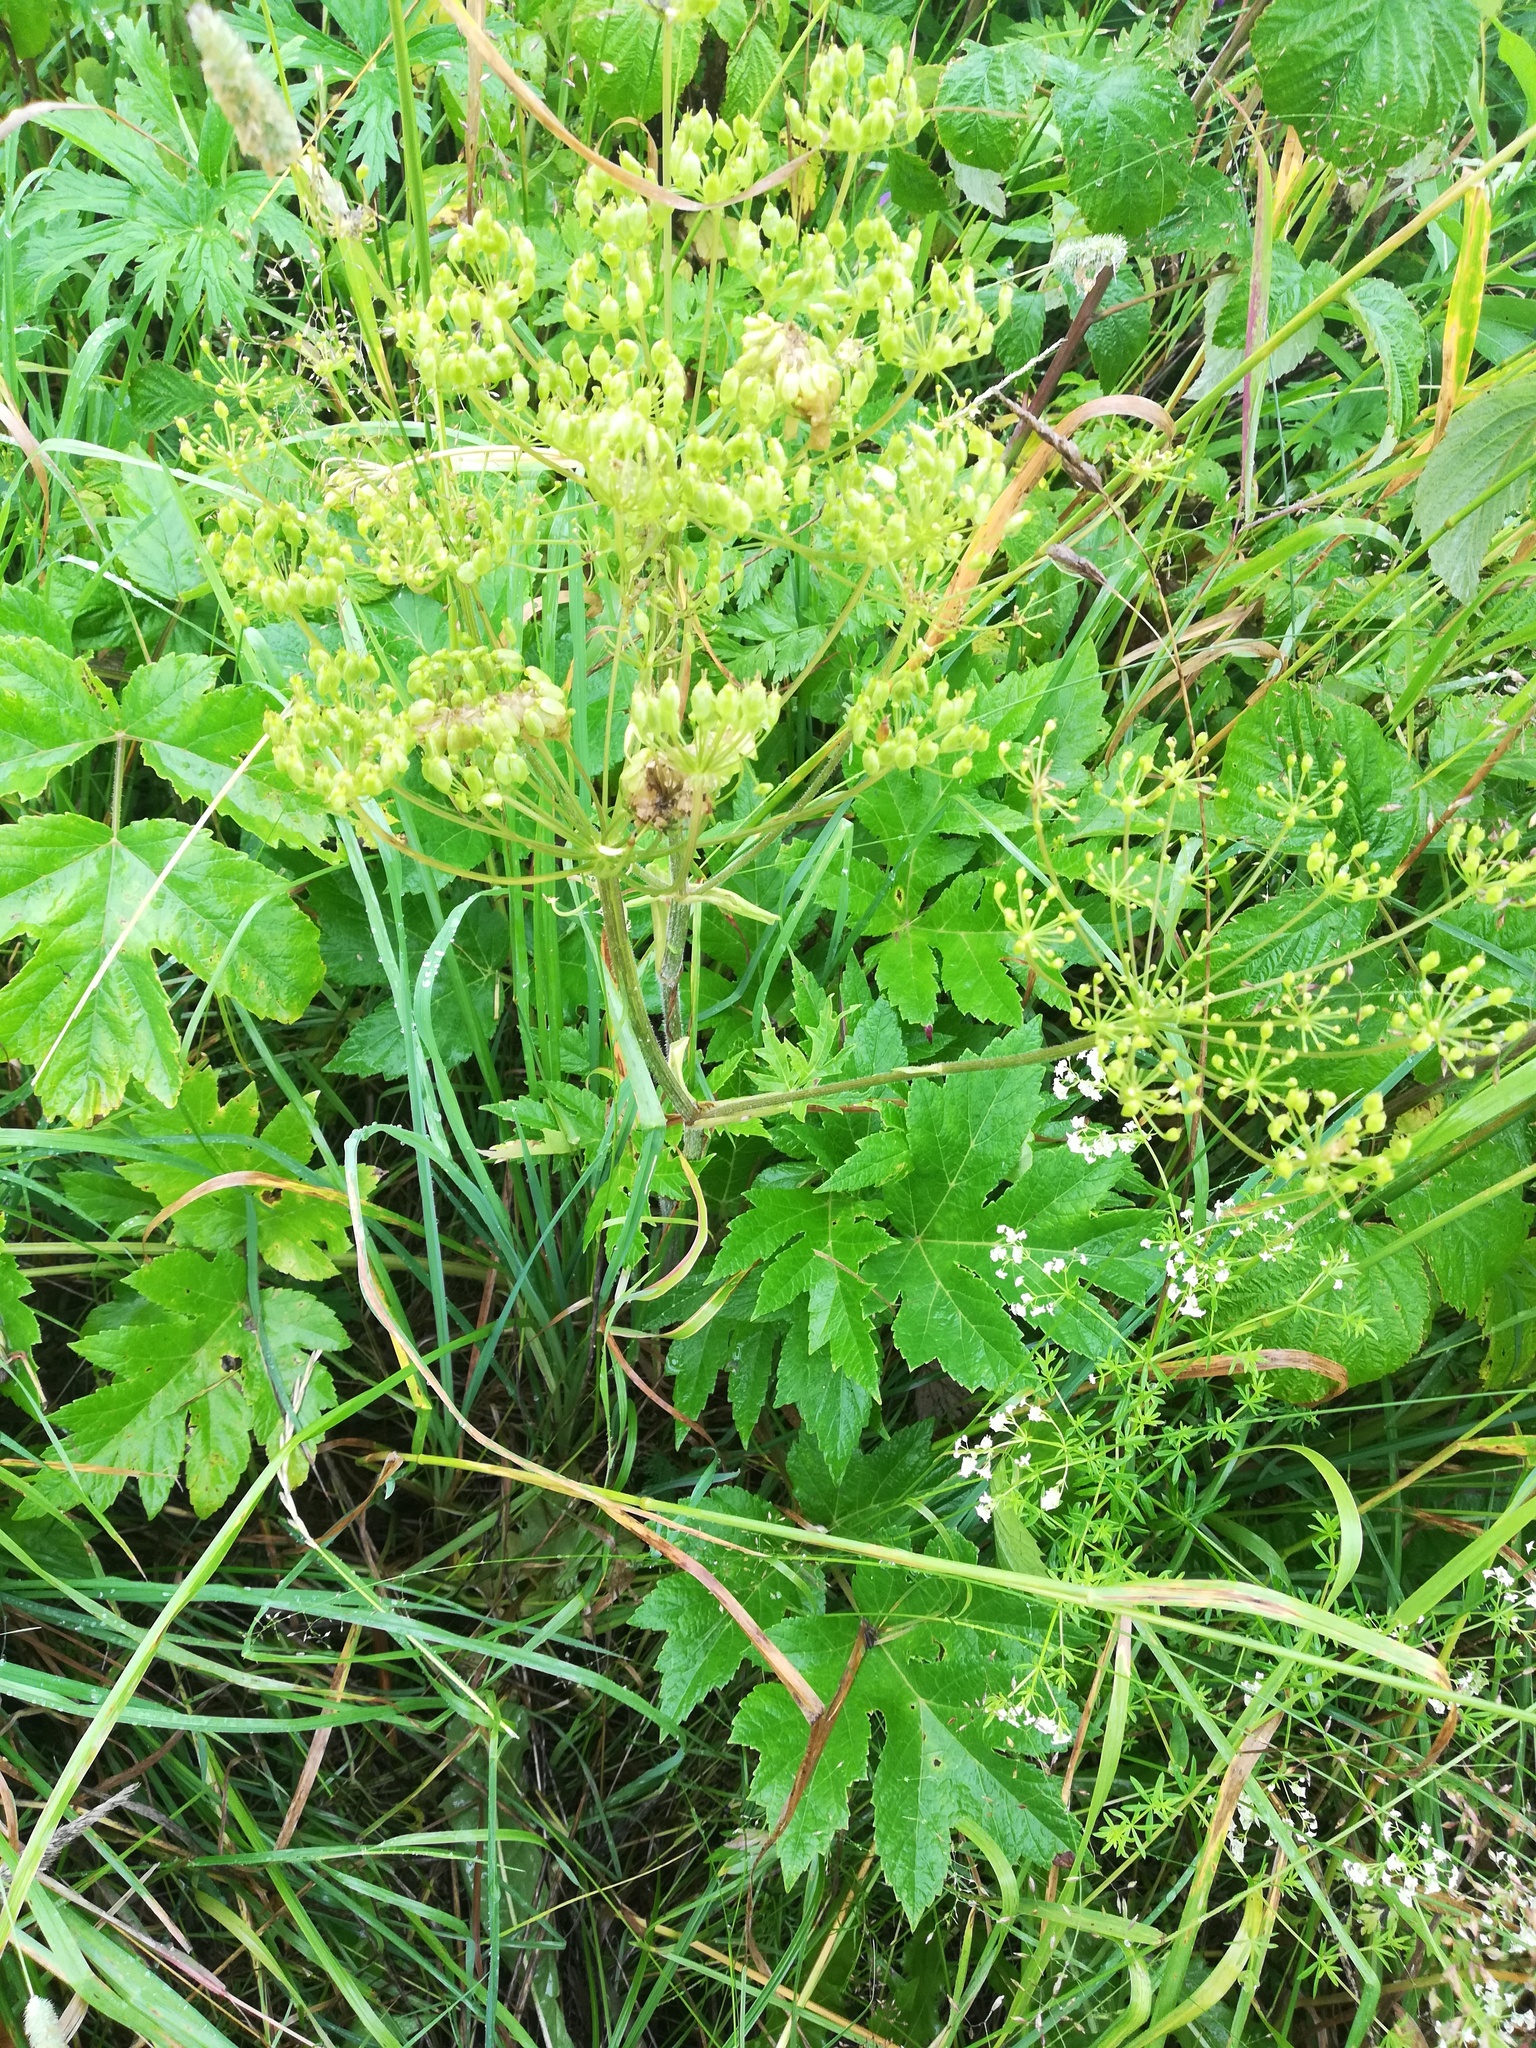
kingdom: Plantae
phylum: Tracheophyta
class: Magnoliopsida
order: Apiales
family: Apiaceae
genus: Heracleum
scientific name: Heracleum sphondylium
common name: Hogweed
